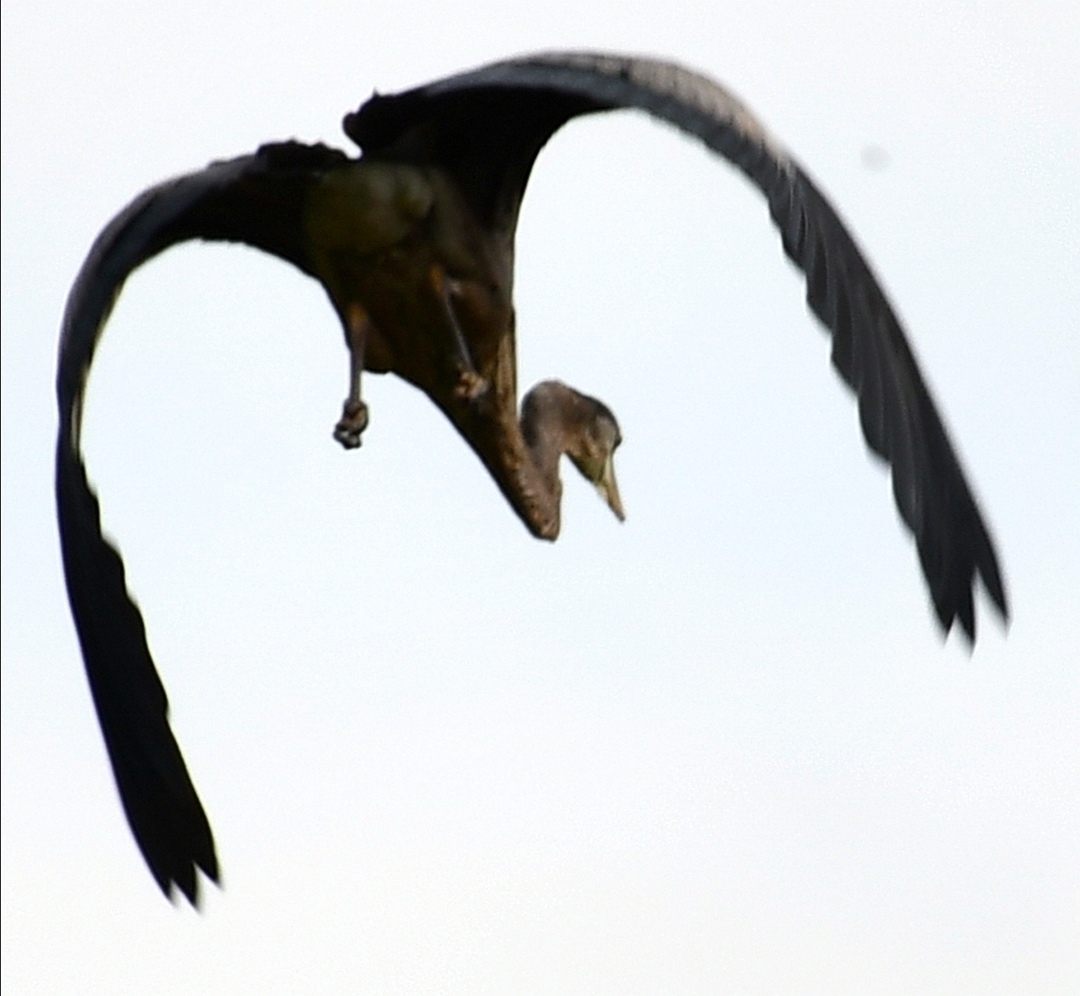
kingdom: Animalia
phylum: Chordata
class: Aves
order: Pelecaniformes
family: Ardeidae
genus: Ardea
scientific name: Ardea herodias
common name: Great blue heron
